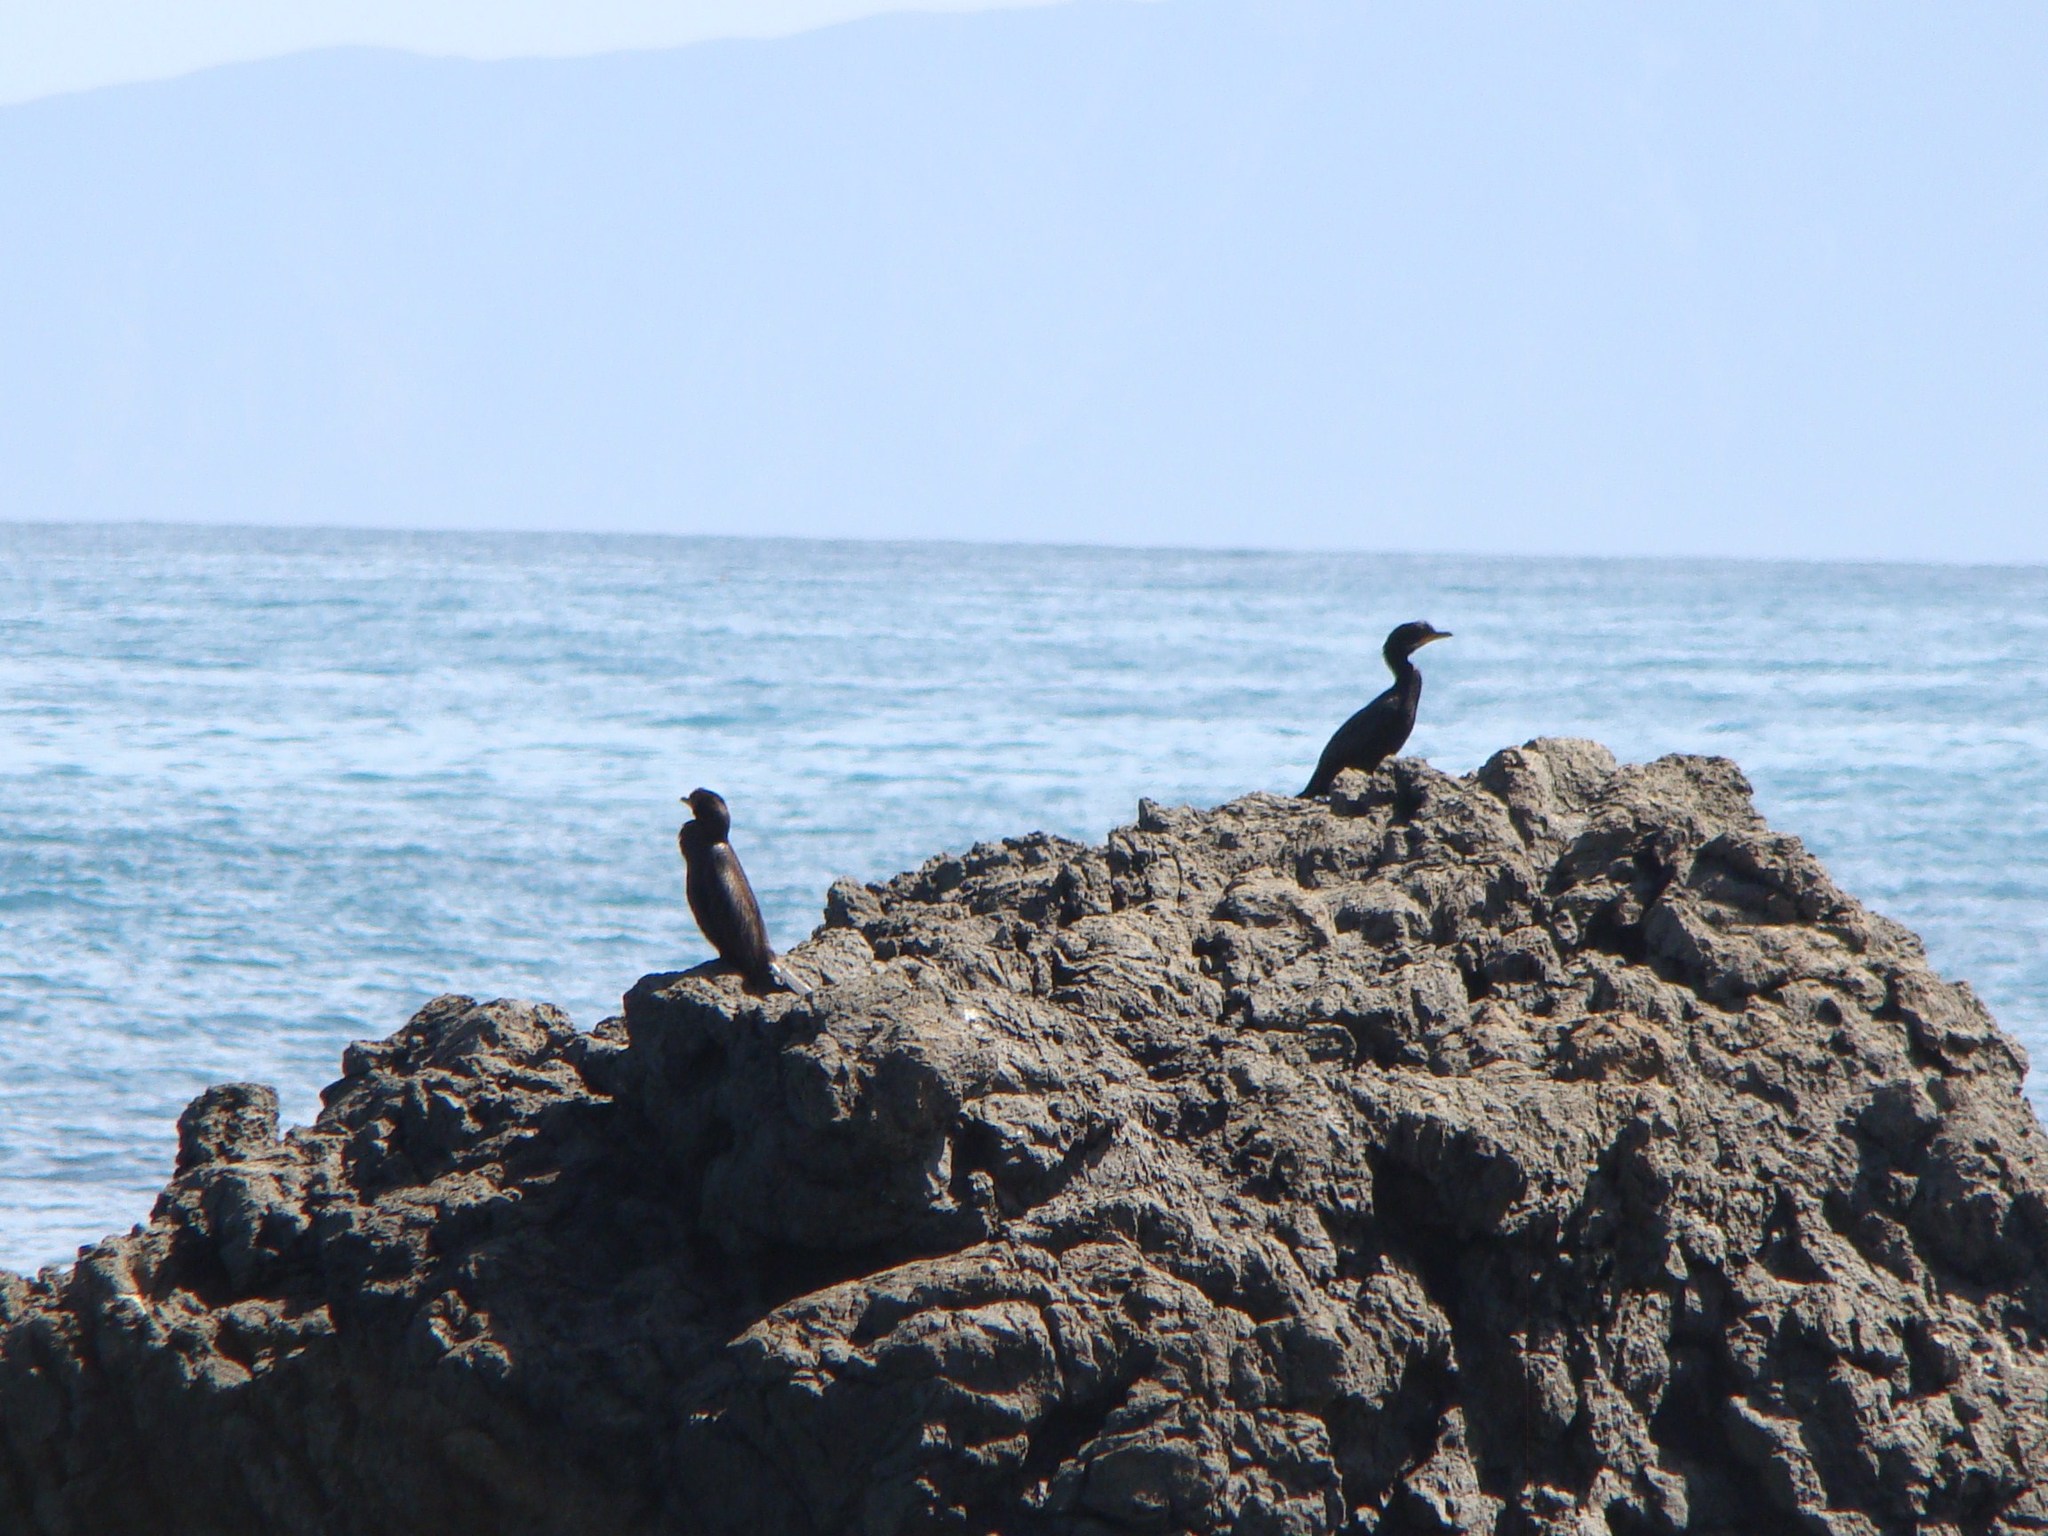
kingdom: Animalia
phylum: Chordata
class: Aves
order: Suliformes
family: Phalacrocoracidae
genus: Microcarbo
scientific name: Microcarbo melanoleucos
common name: Little pied cormorant
